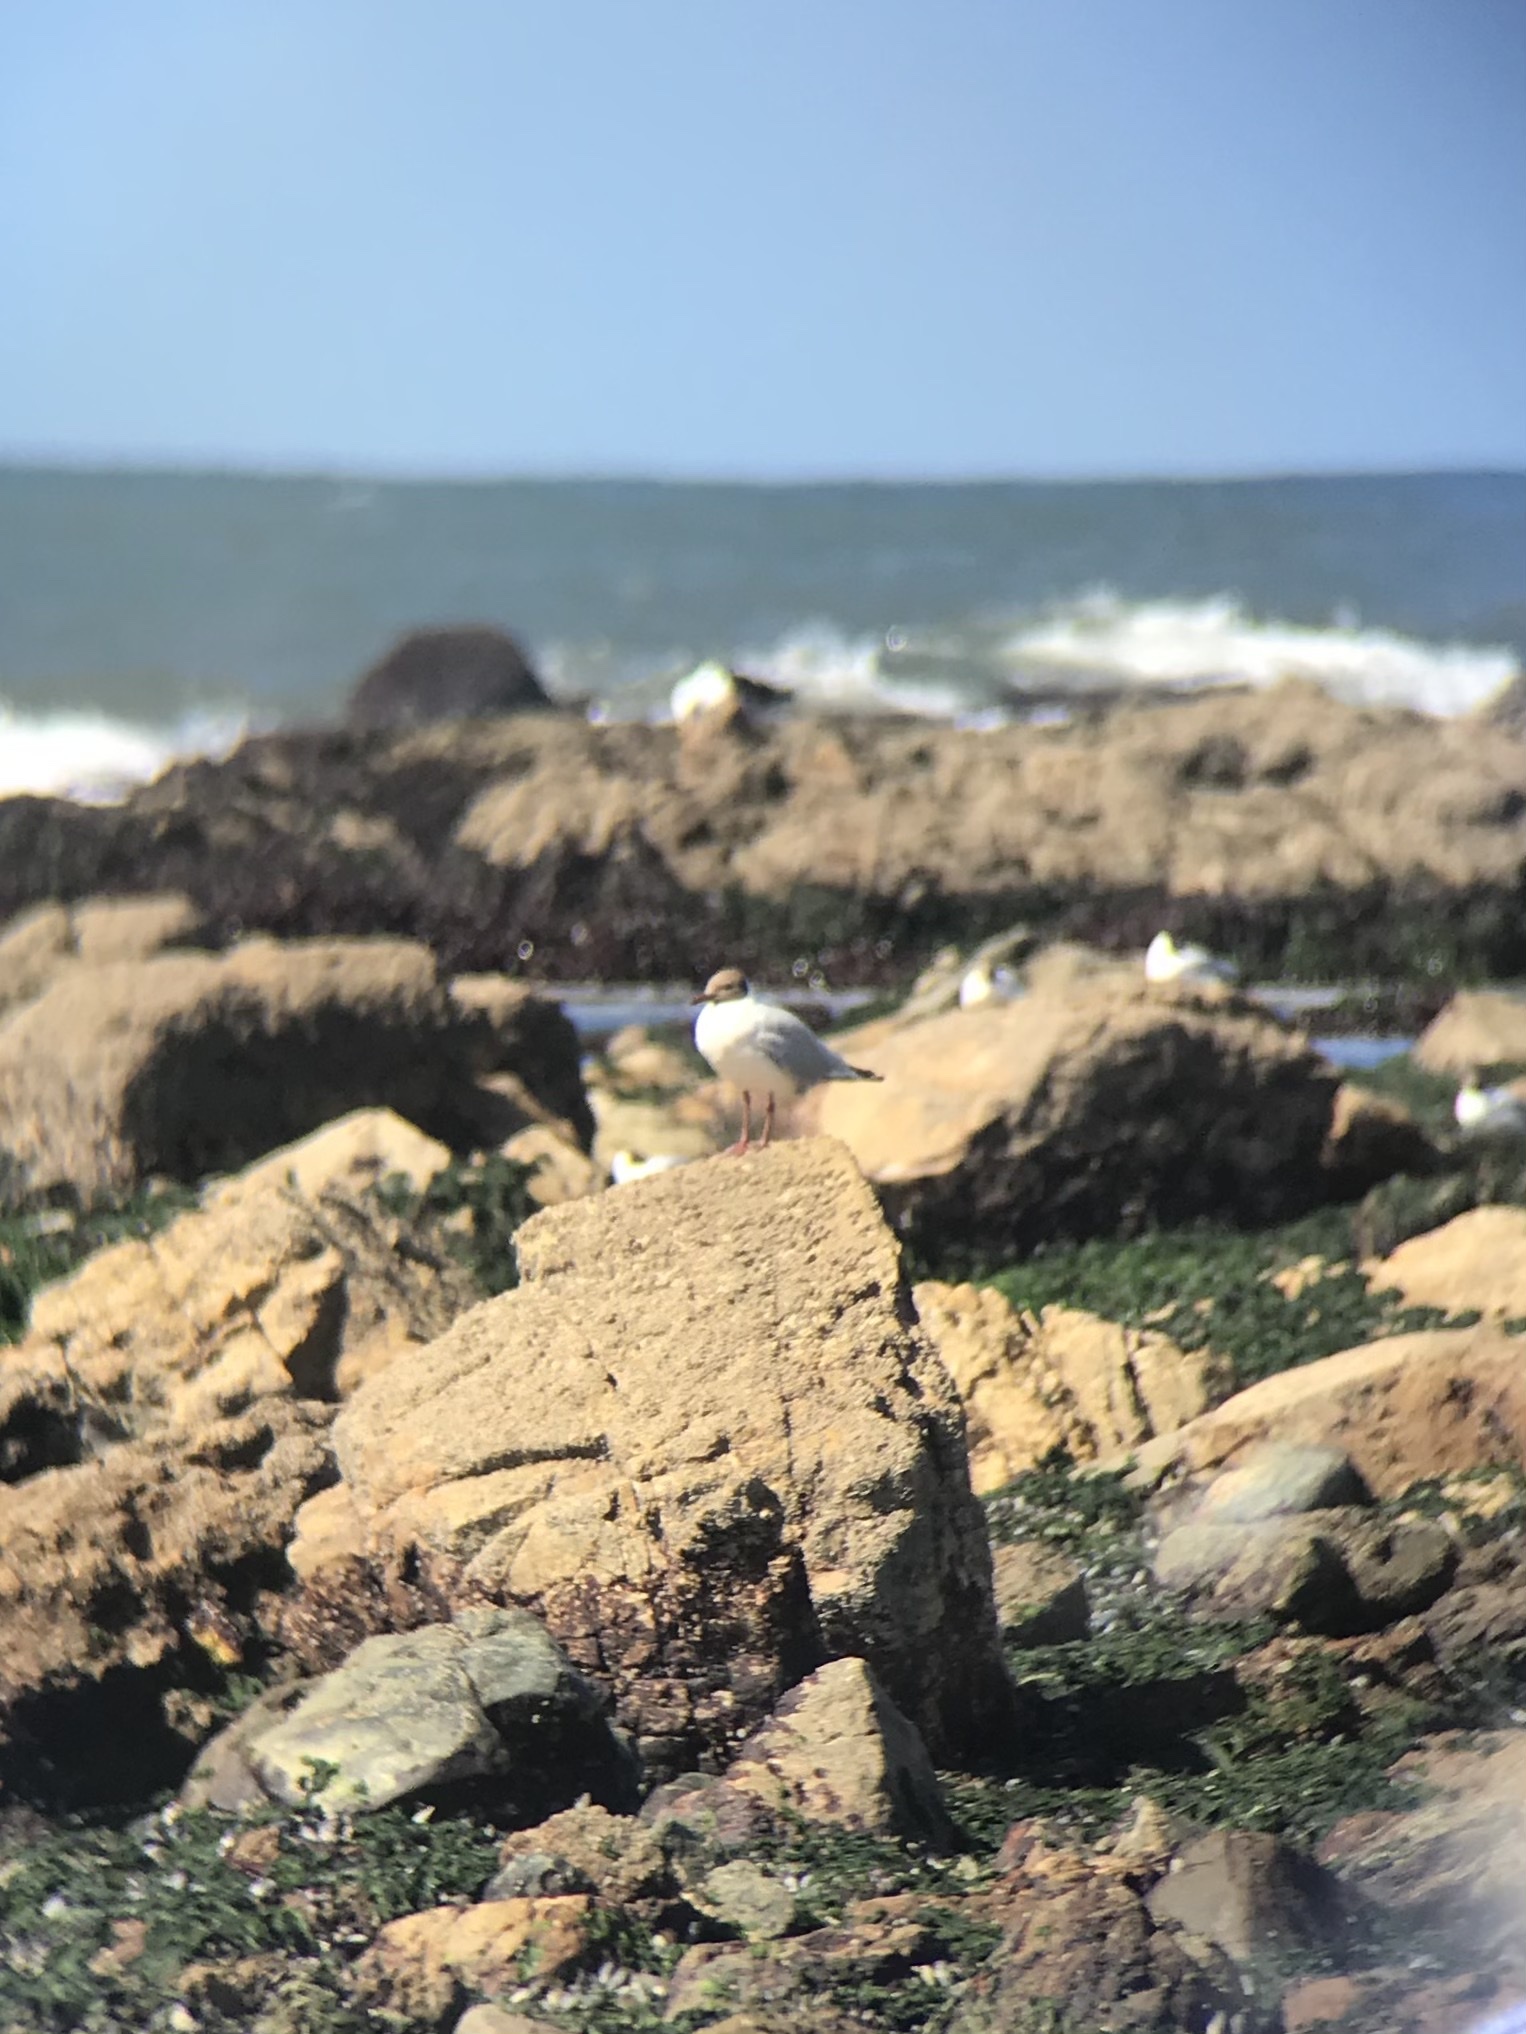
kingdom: Animalia
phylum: Chordata
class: Aves
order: Charadriiformes
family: Laridae
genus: Chroicocephalus
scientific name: Chroicocephalus maculipennis
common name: Brown-hooded gull
